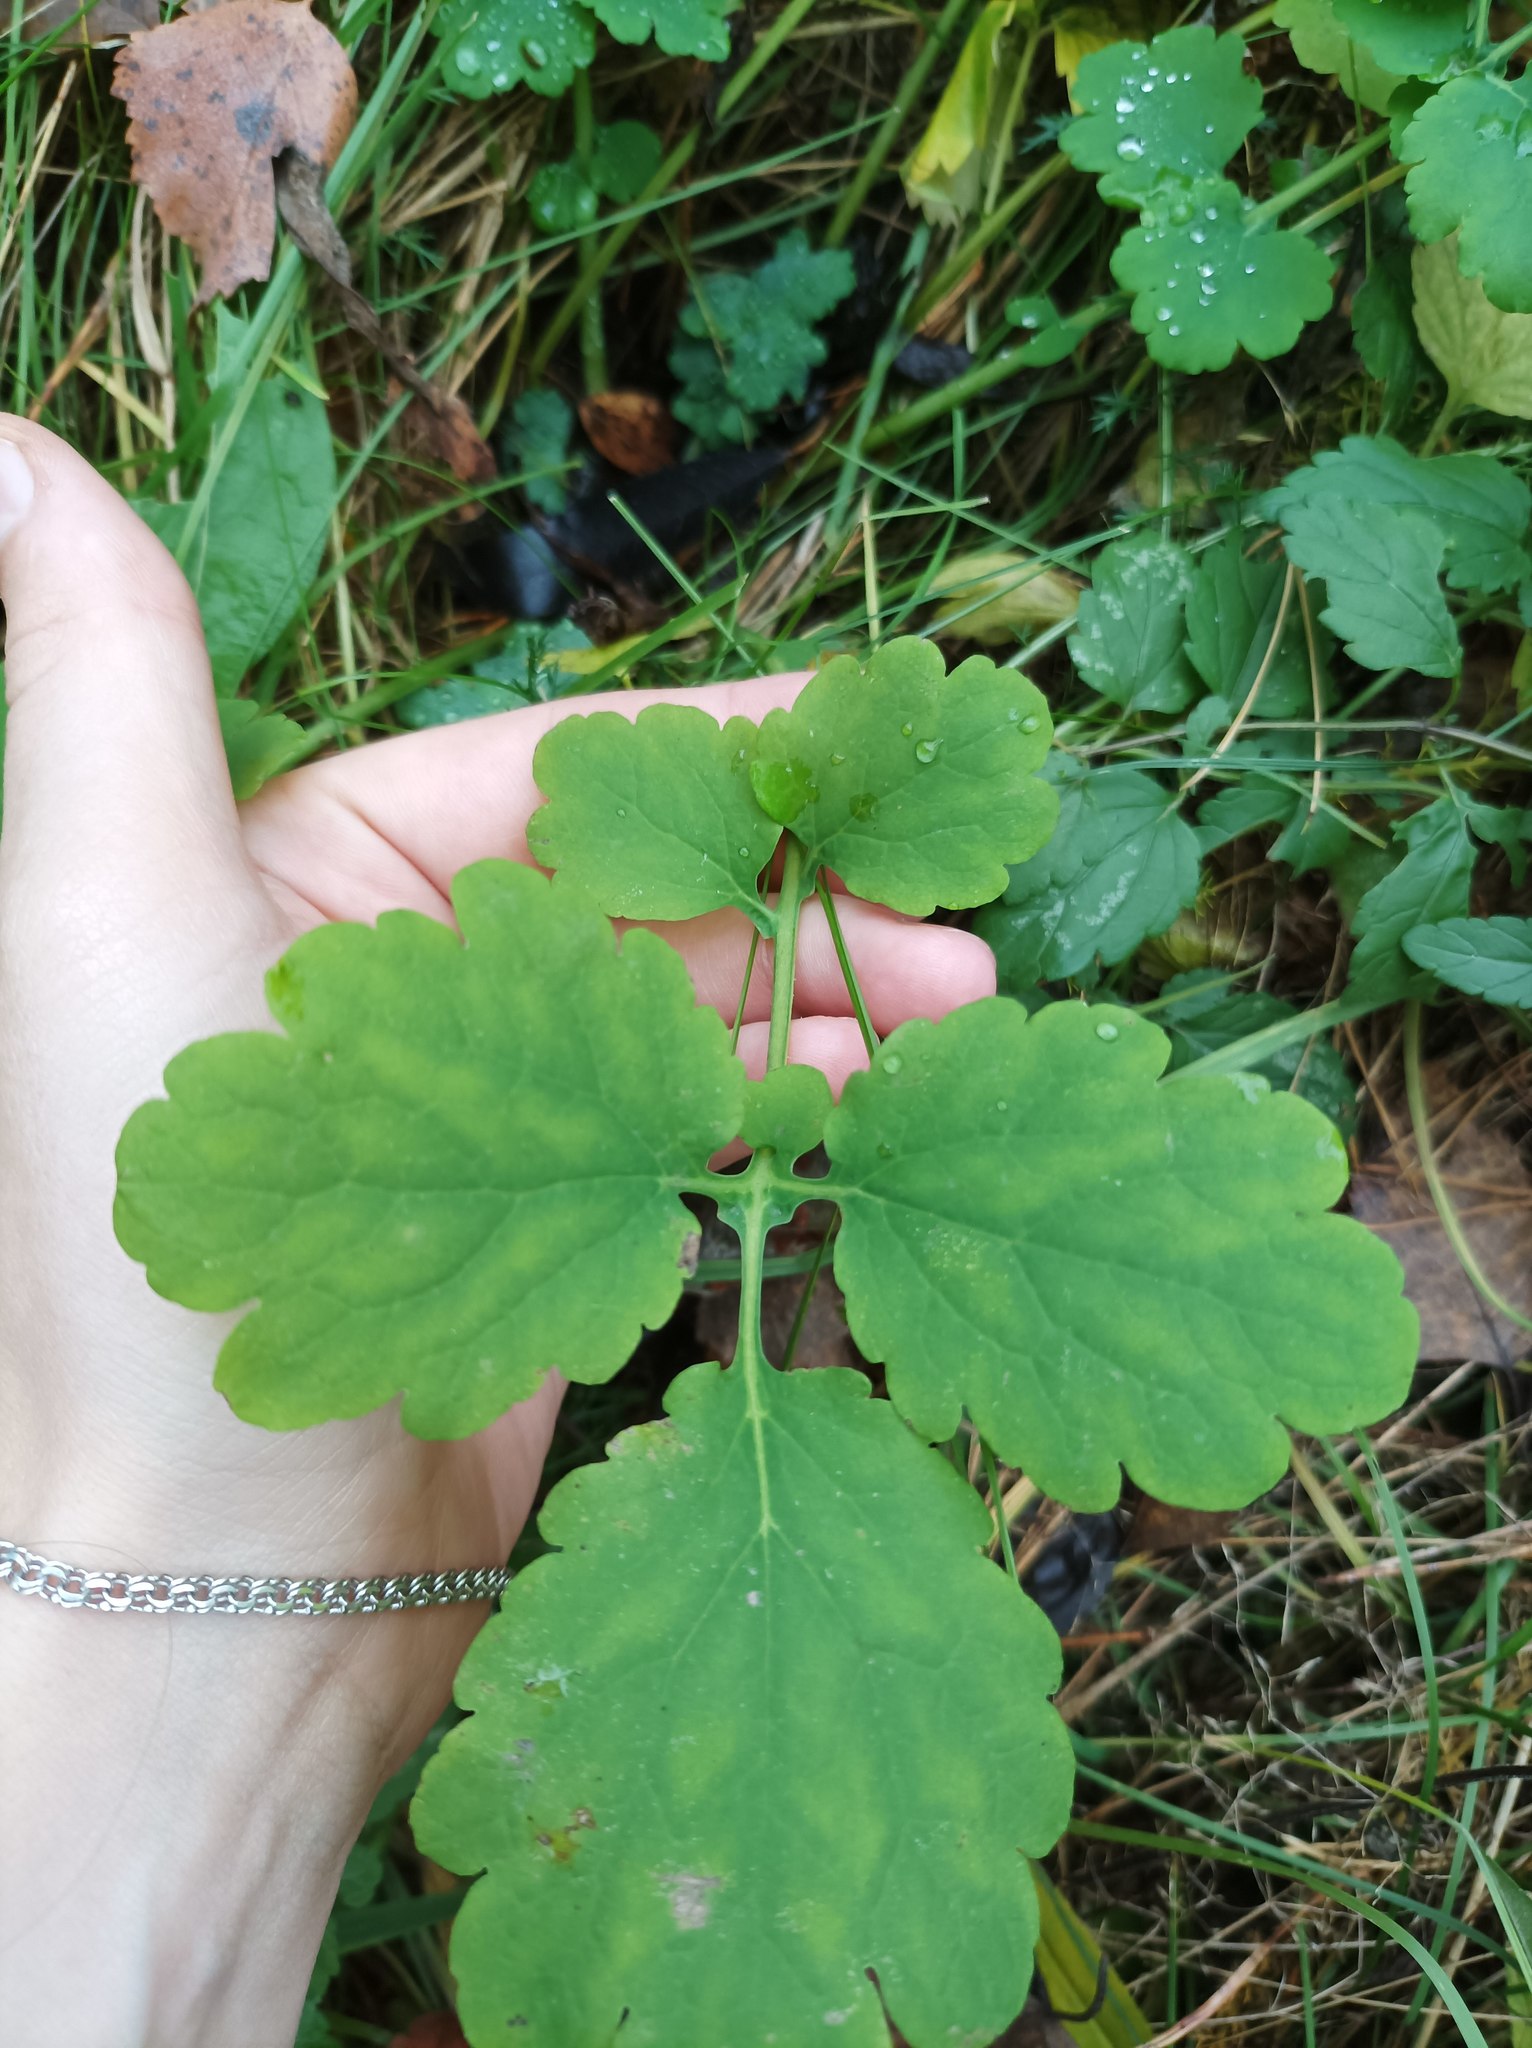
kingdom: Plantae
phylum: Tracheophyta
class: Magnoliopsida
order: Ranunculales
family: Papaveraceae
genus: Chelidonium
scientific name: Chelidonium majus
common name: Greater celandine
